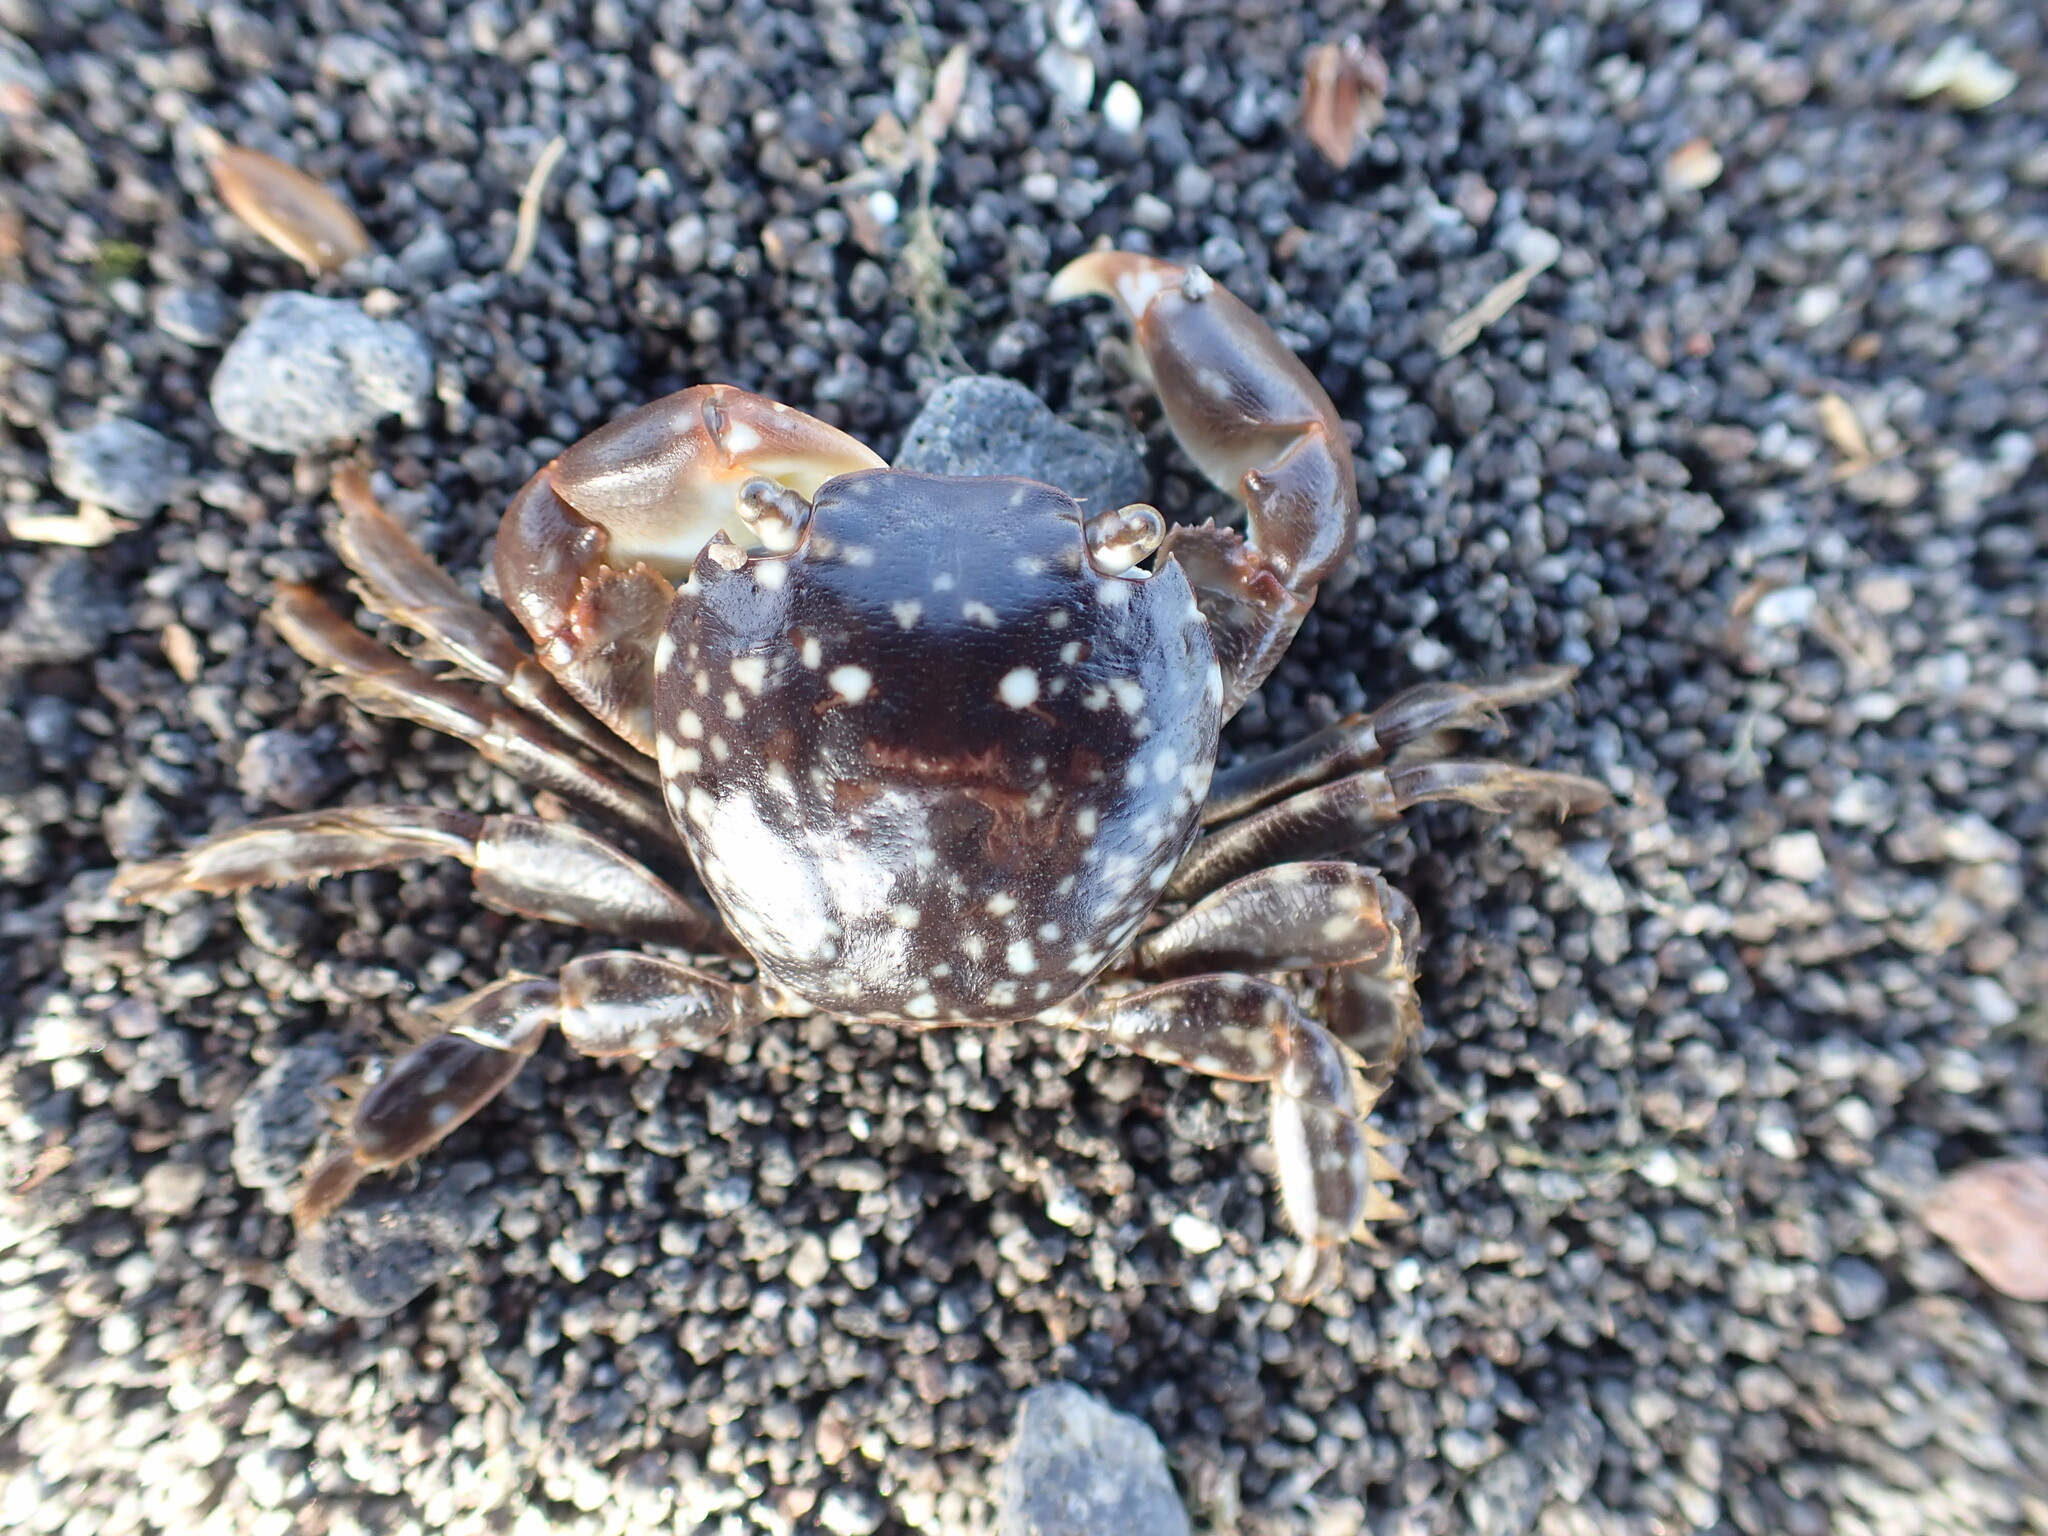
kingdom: Animalia
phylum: Arthropoda
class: Malacostraca
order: Decapoda
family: Grapsidae
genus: Planes
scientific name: Planes minutus
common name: Gulf weed crab
